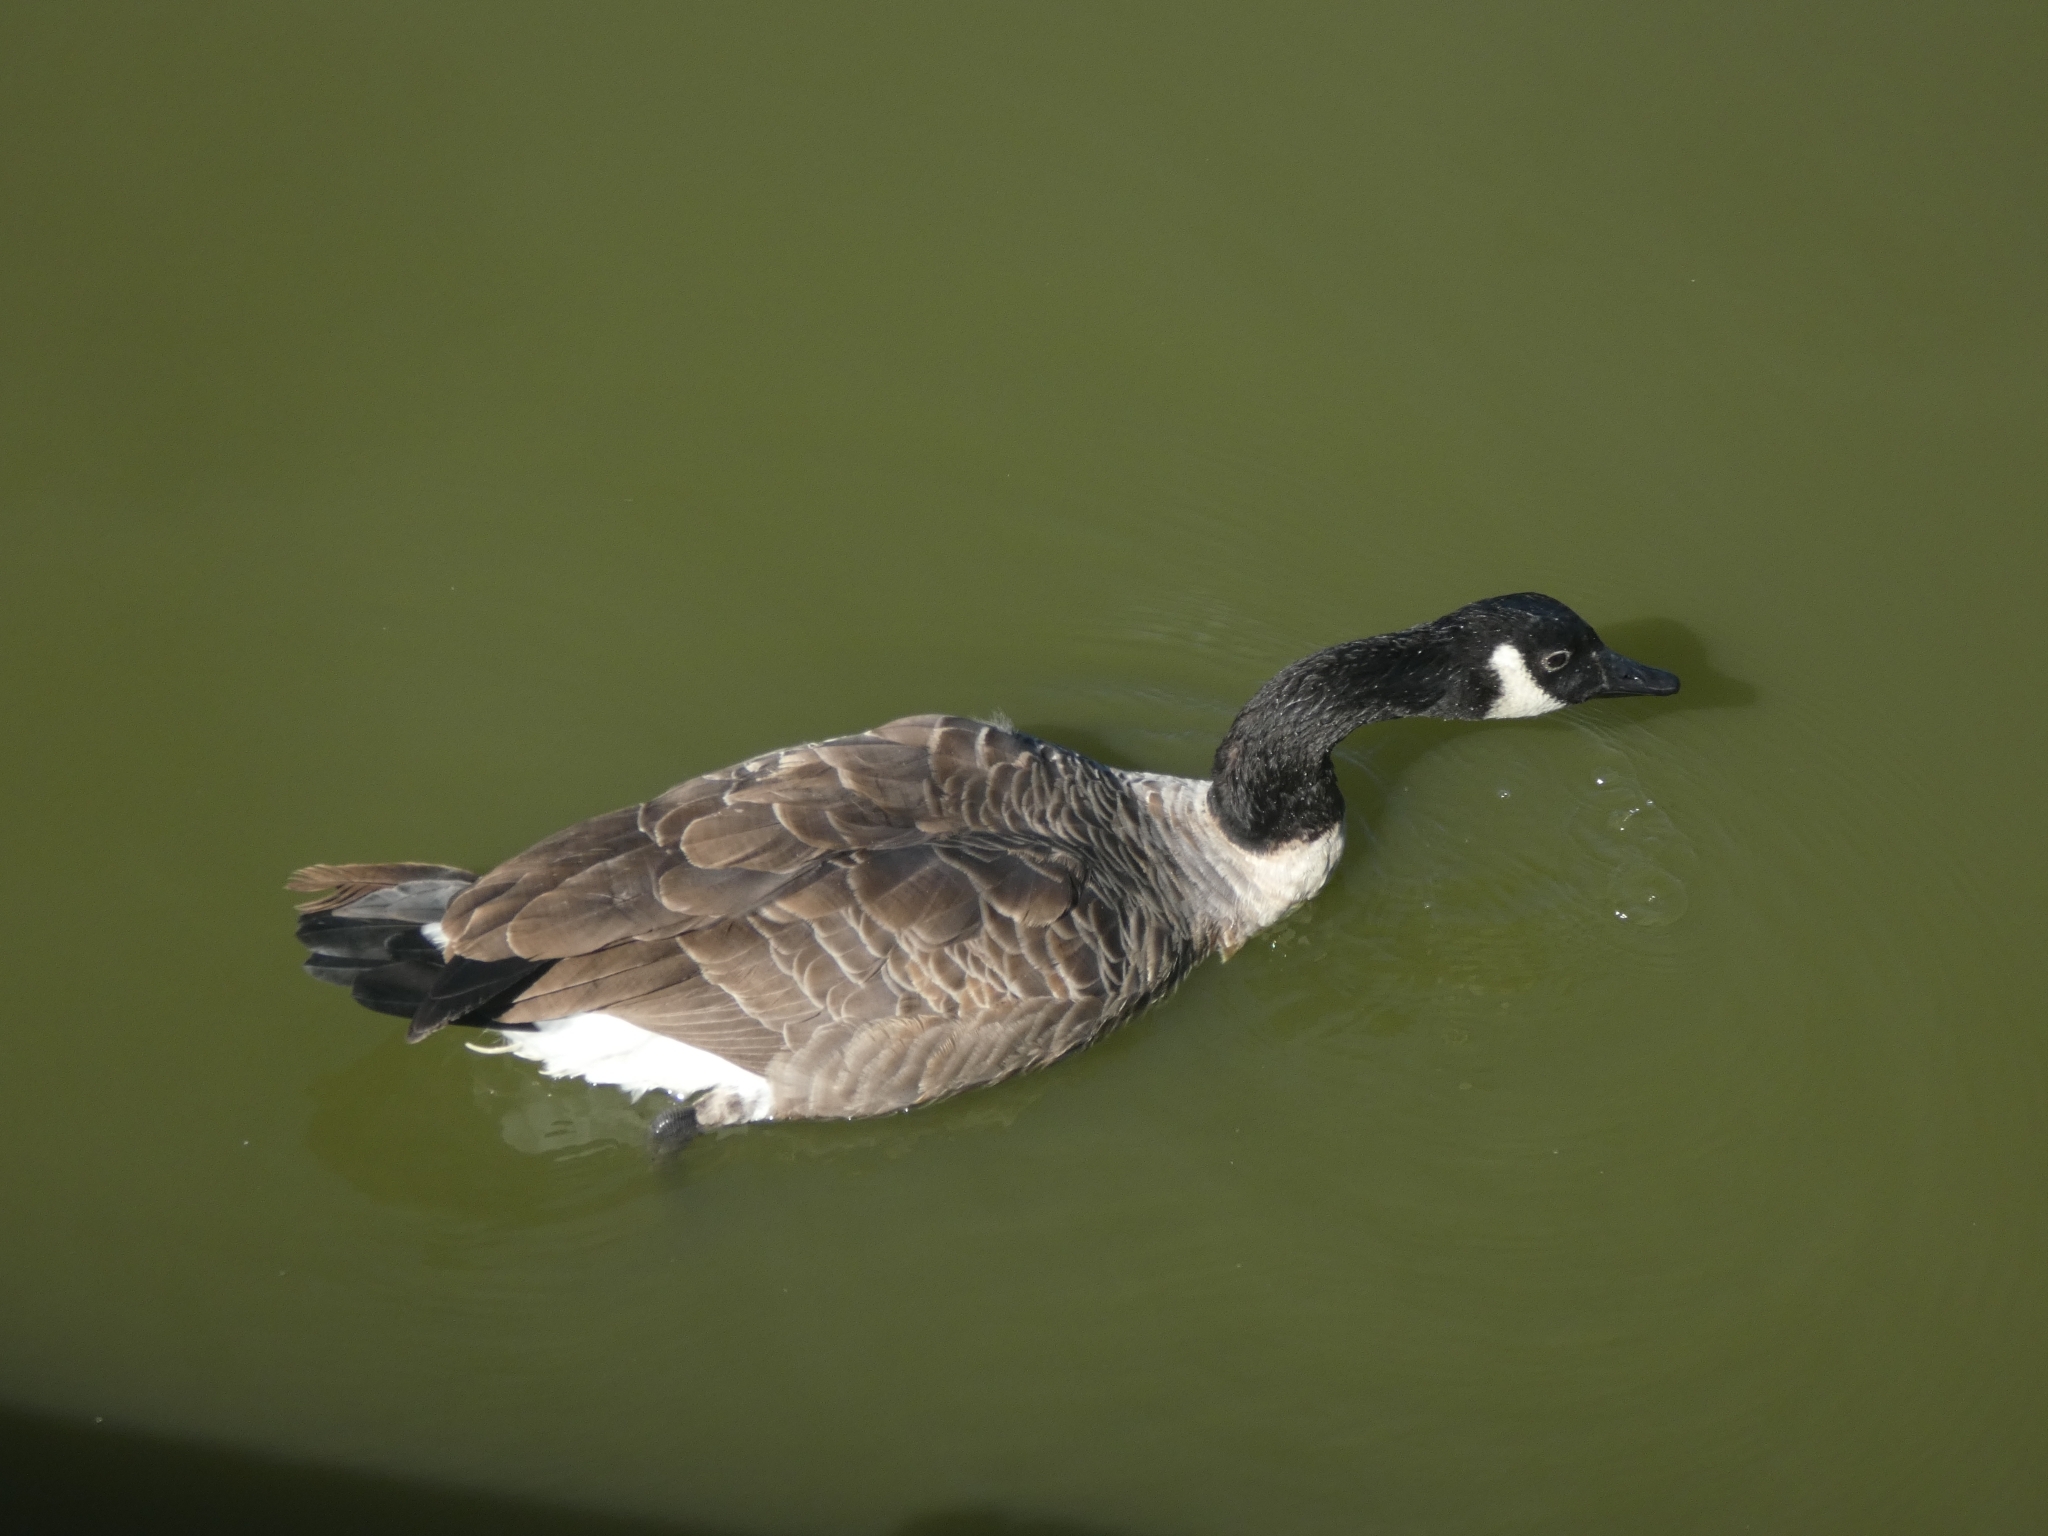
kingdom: Animalia
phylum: Chordata
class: Aves
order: Anseriformes
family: Anatidae
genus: Branta
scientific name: Branta canadensis
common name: Canada goose
